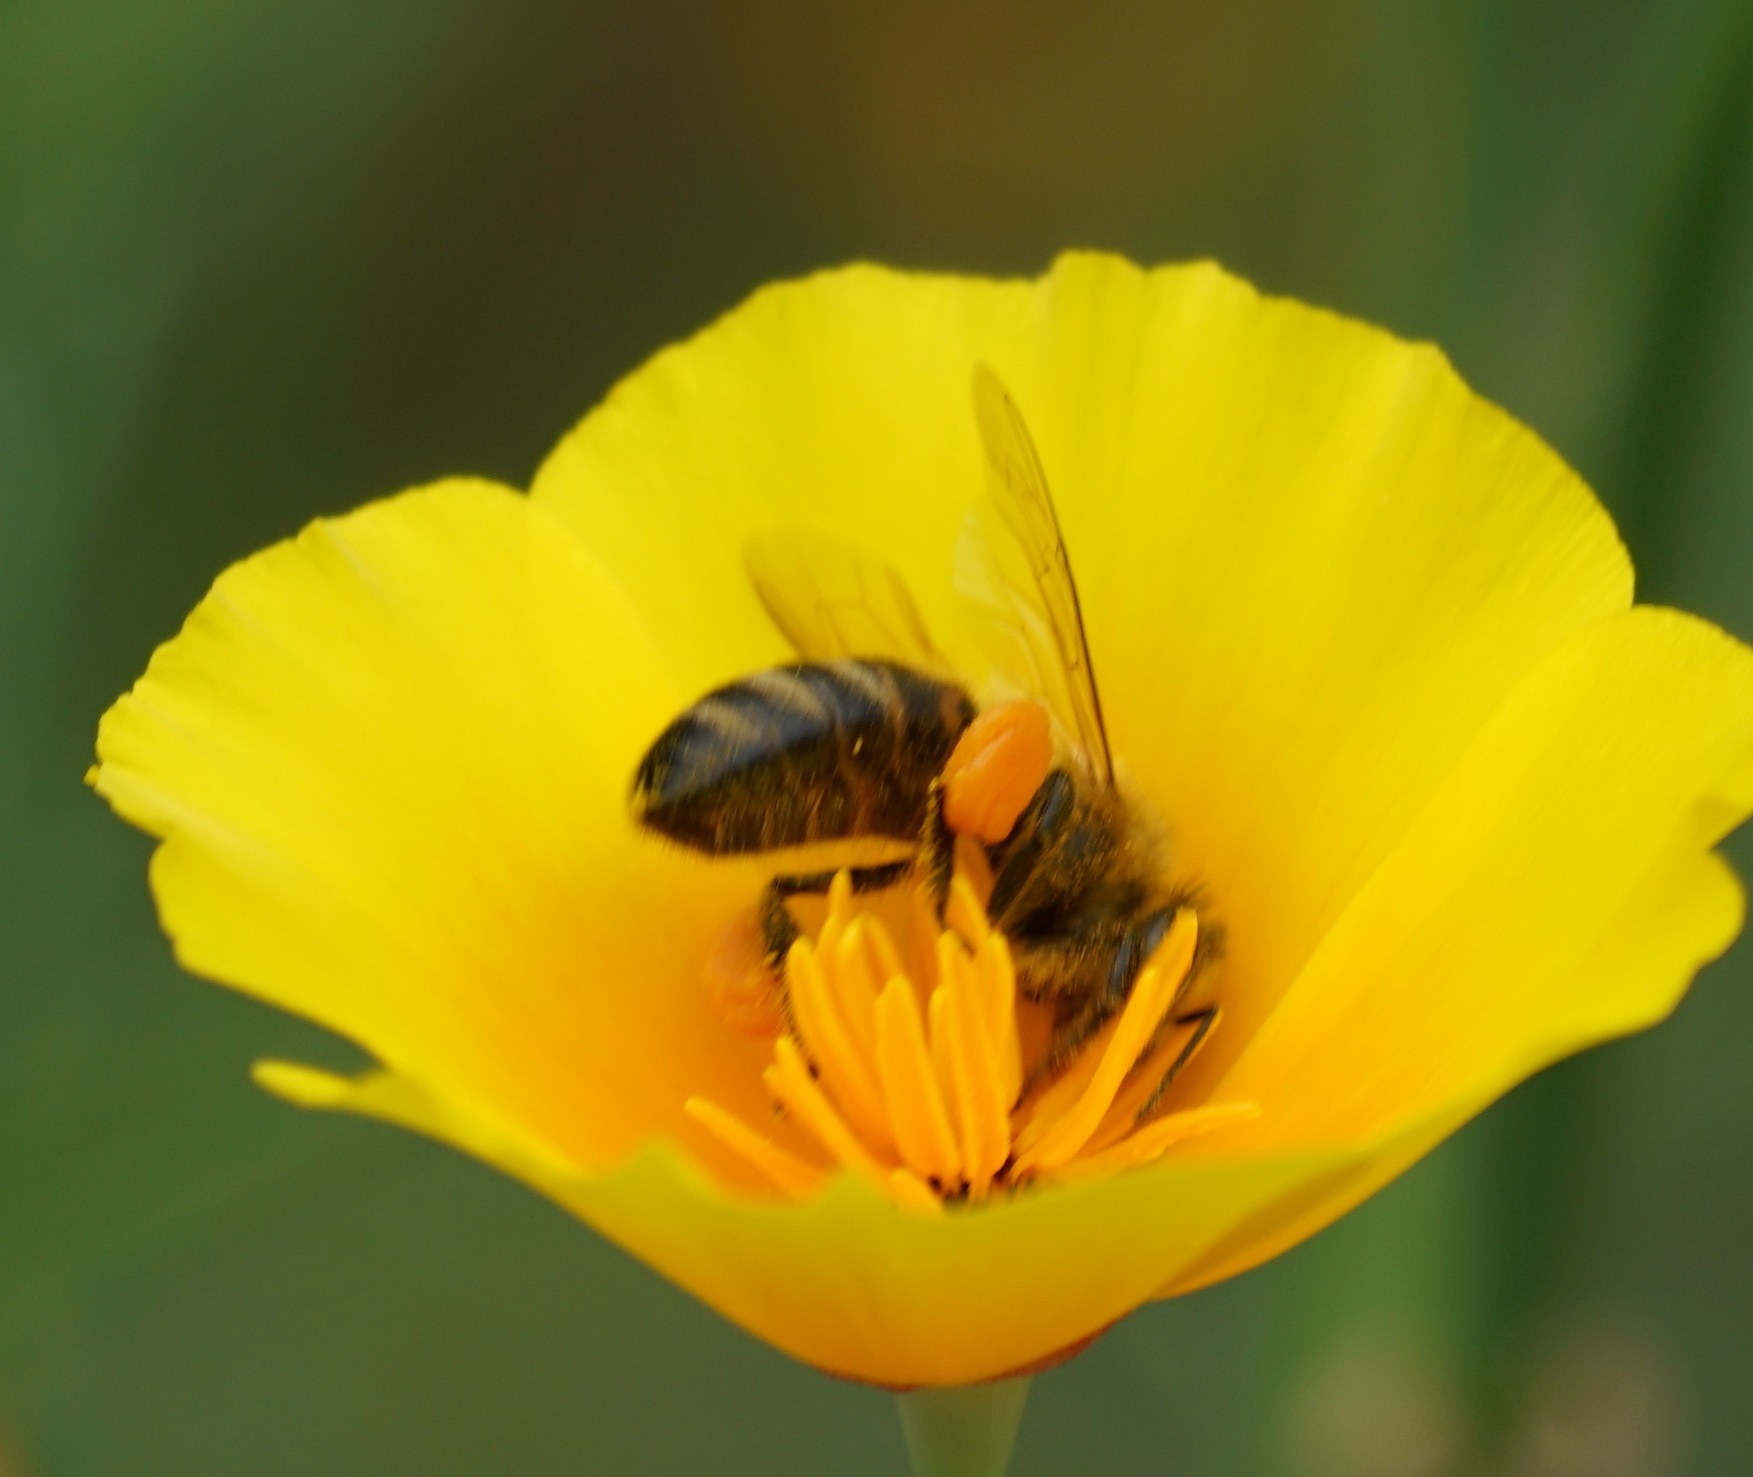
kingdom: Animalia
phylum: Arthropoda
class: Insecta
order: Hymenoptera
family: Apidae
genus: Apis
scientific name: Apis mellifera
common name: Honey bee
